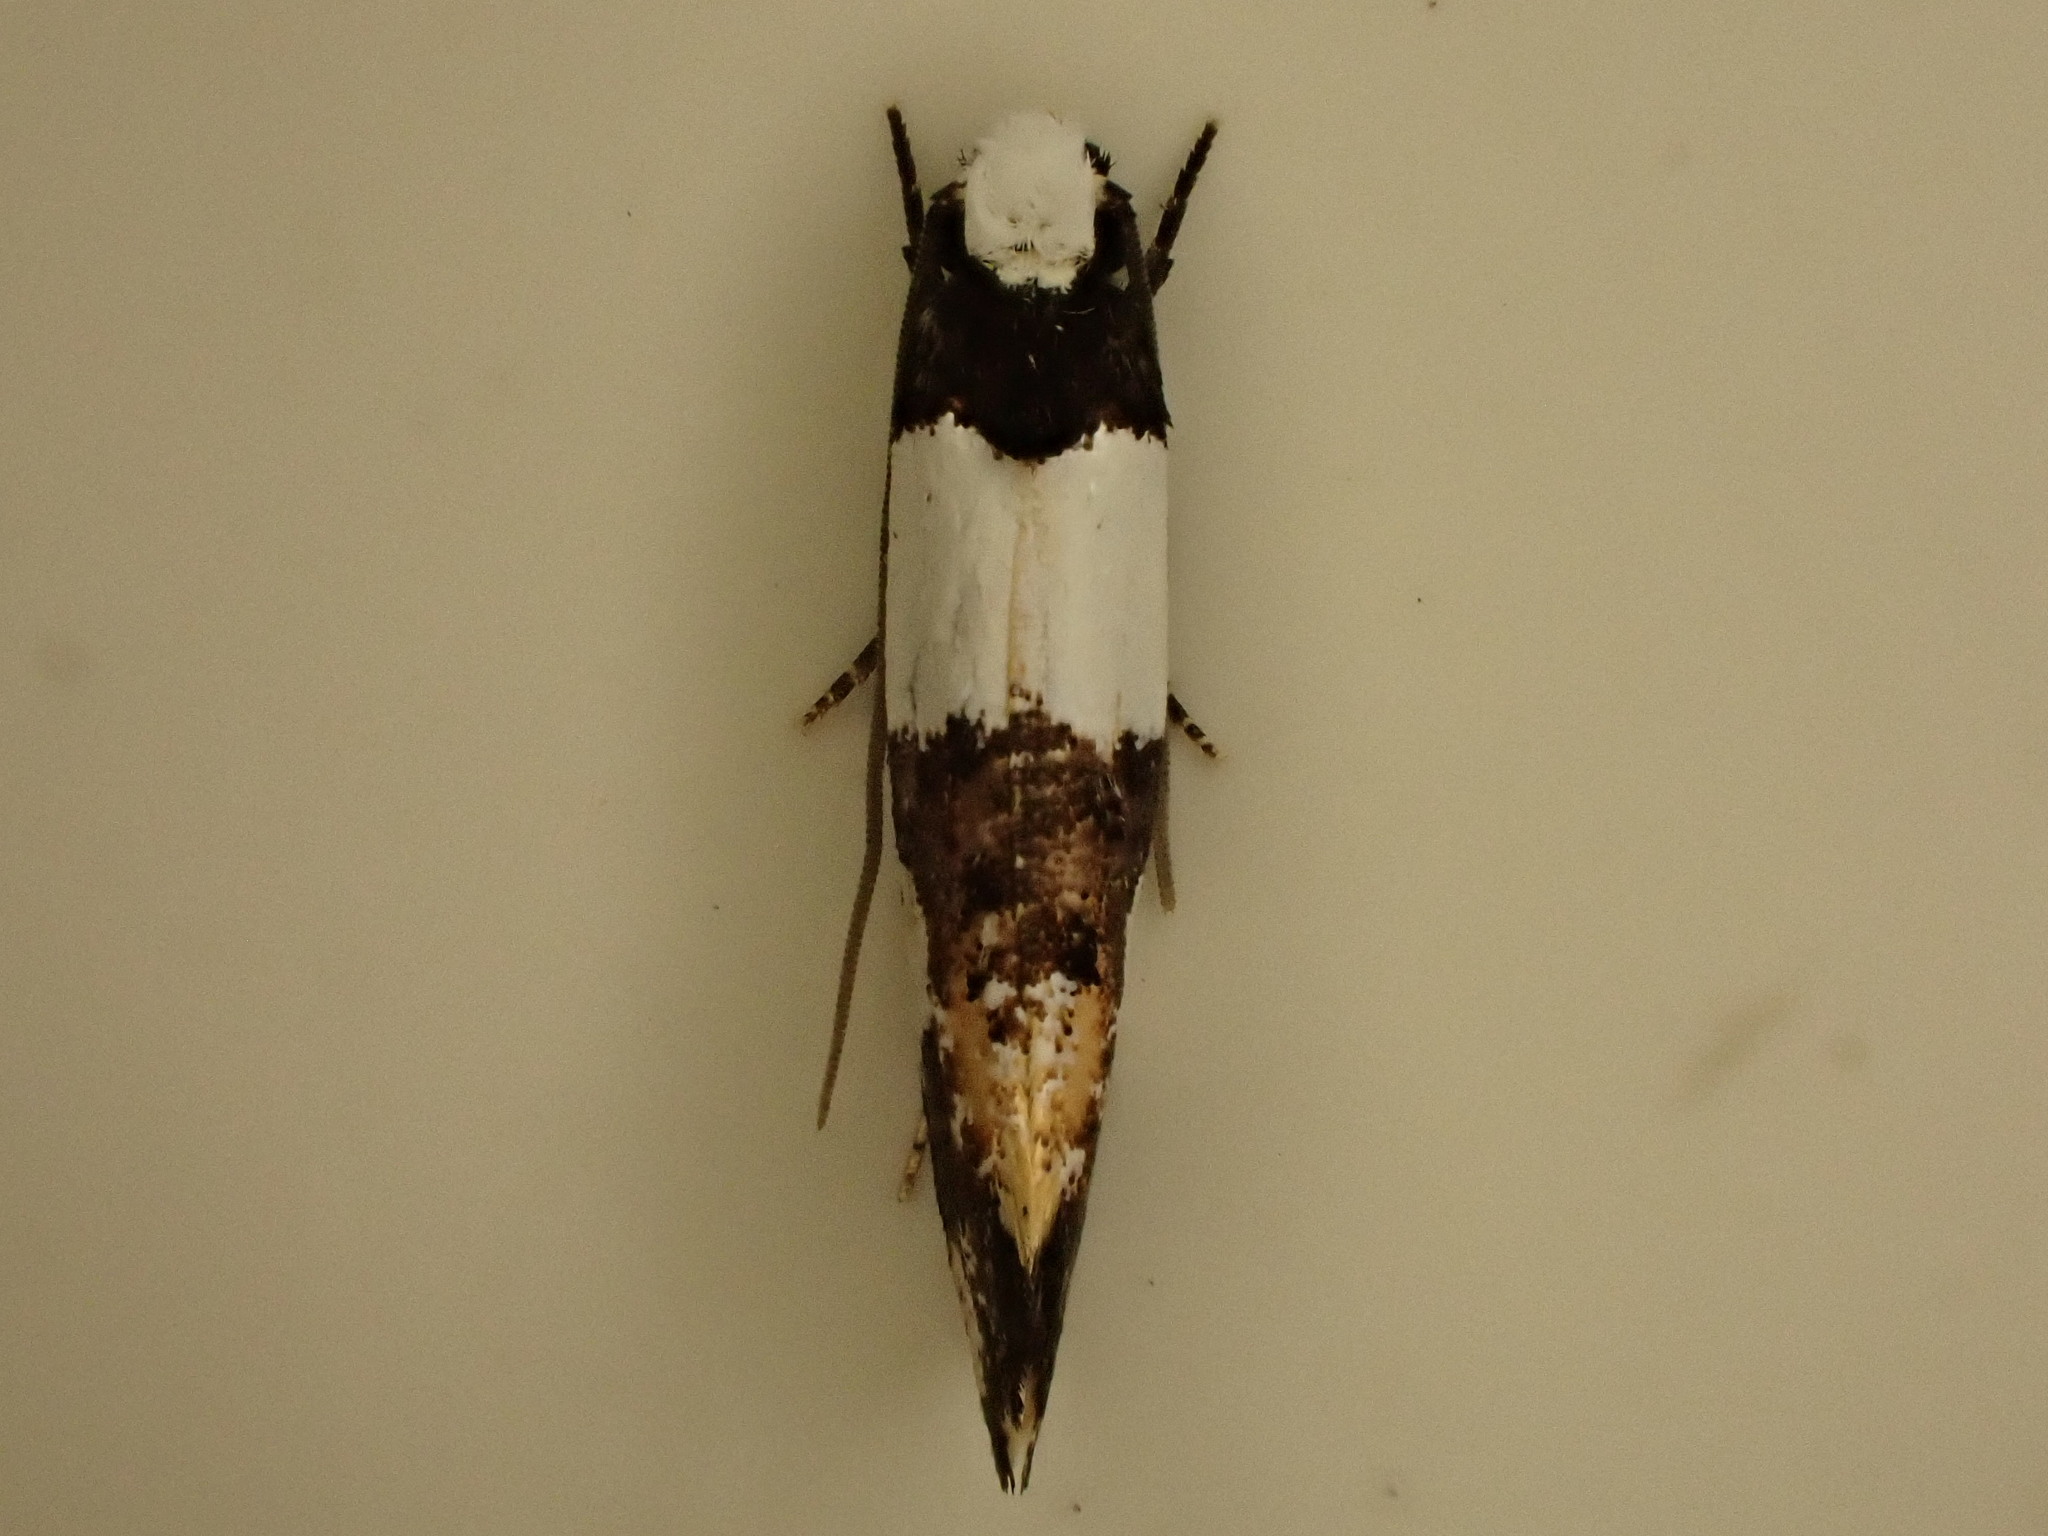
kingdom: Animalia
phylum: Arthropoda
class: Insecta
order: Lepidoptera
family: Tineidae
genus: Monopis
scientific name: Monopis icterogastra
